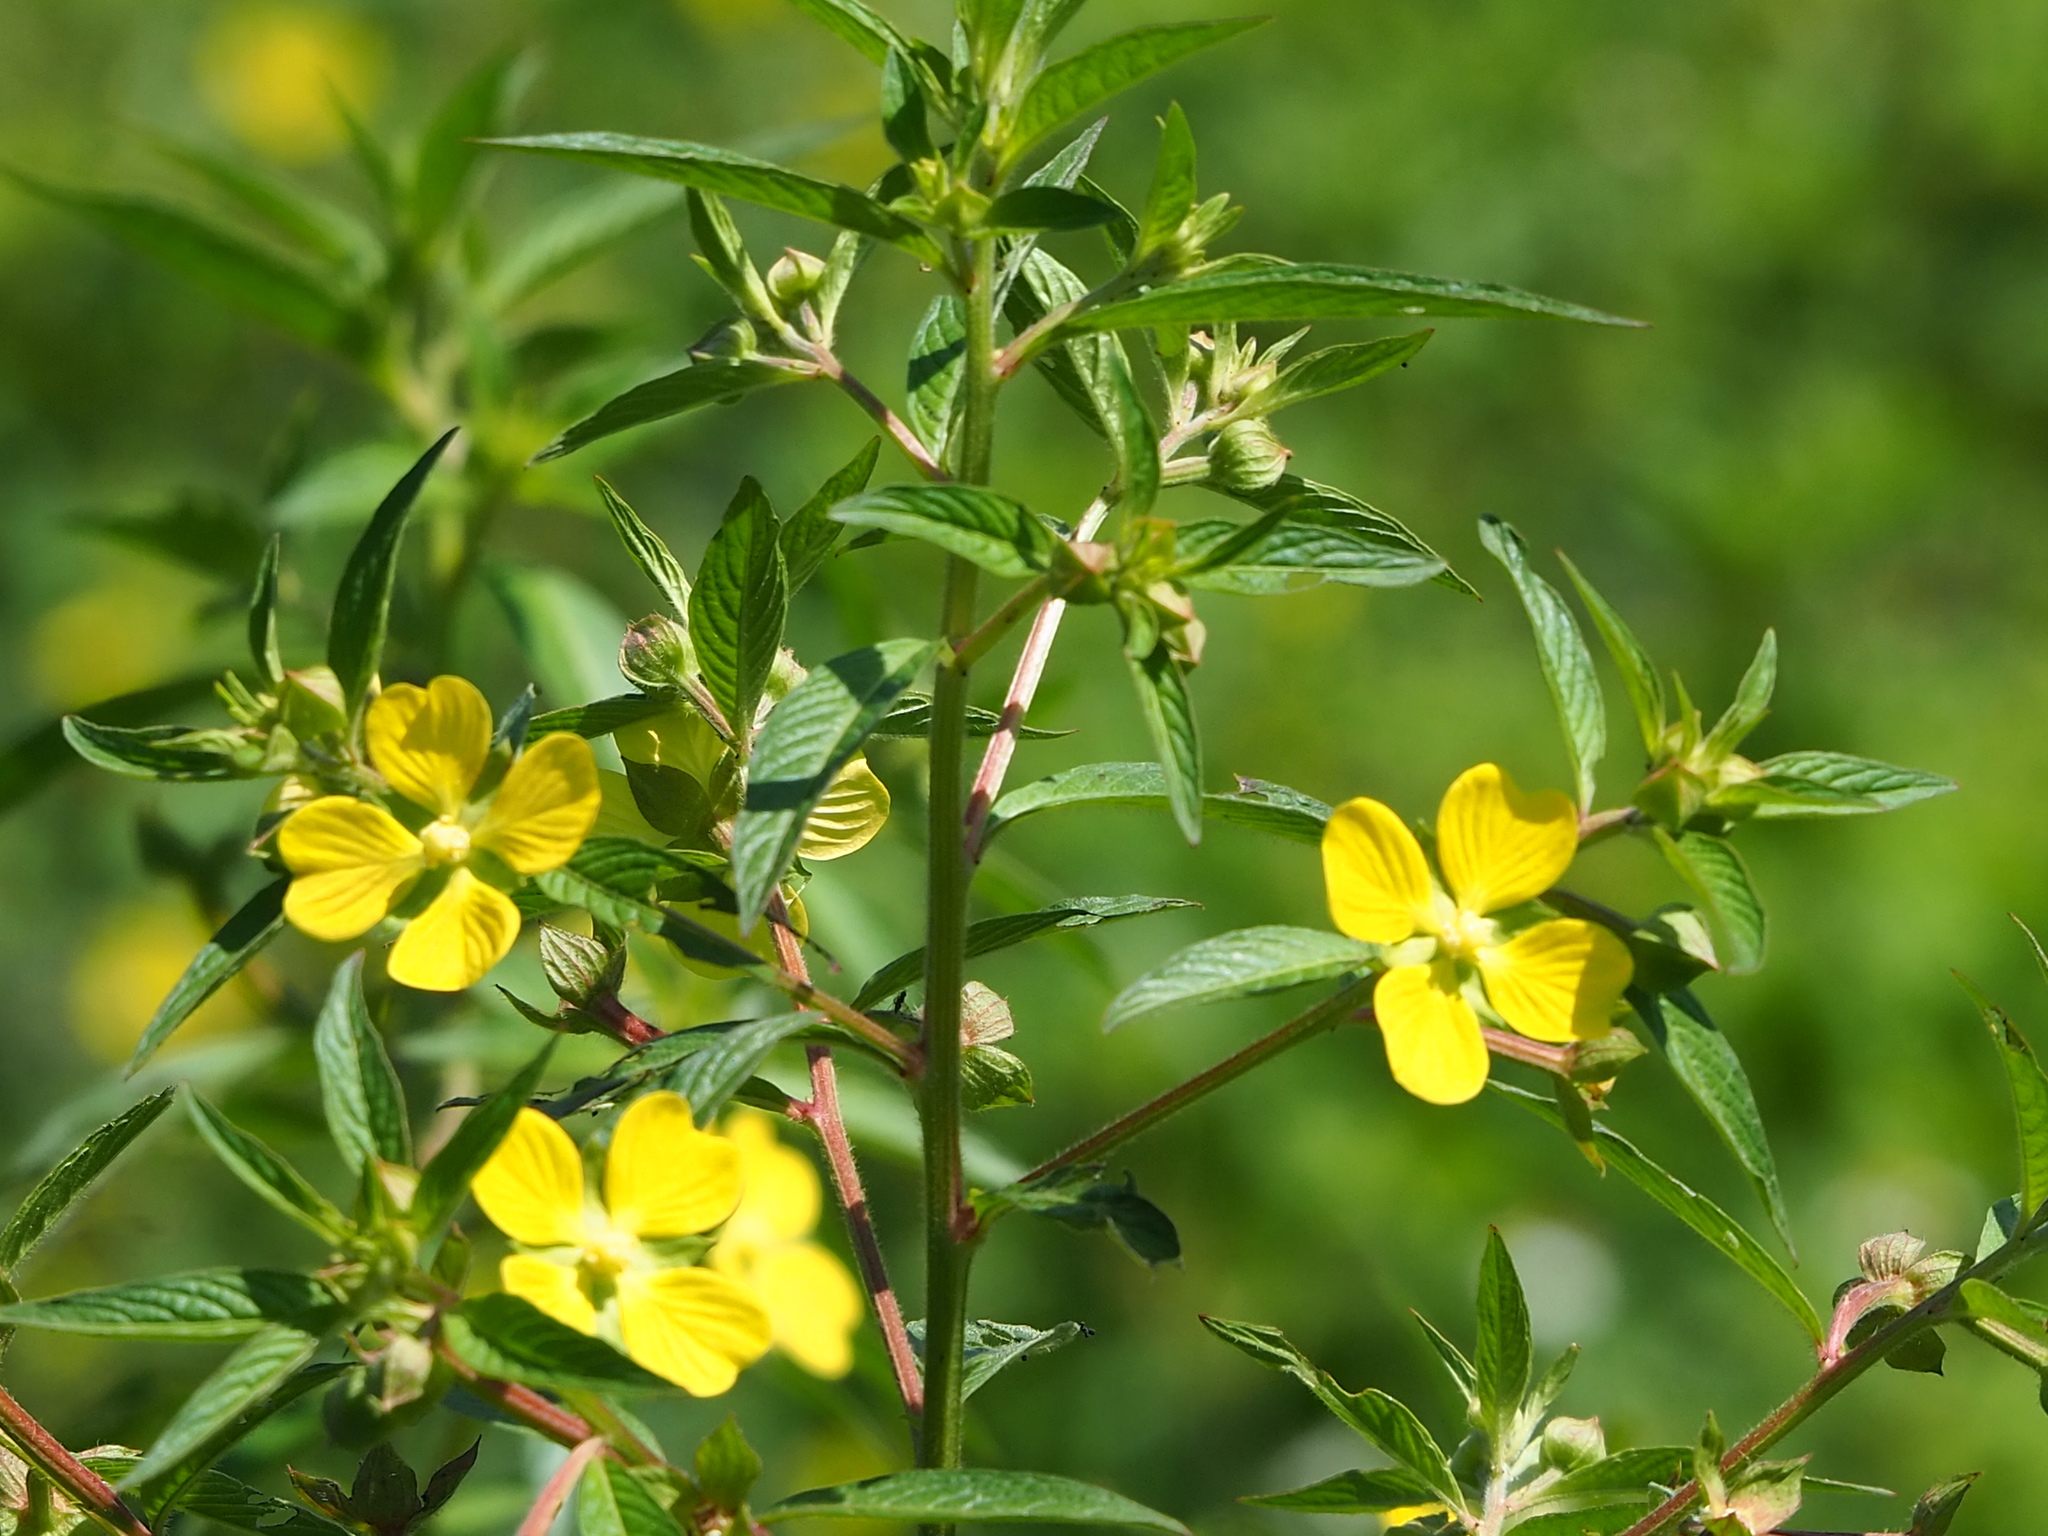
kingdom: Plantae
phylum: Tracheophyta
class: Magnoliopsida
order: Myrtales
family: Onagraceae
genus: Ludwigia
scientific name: Ludwigia octovalvis
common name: Water-primrose
